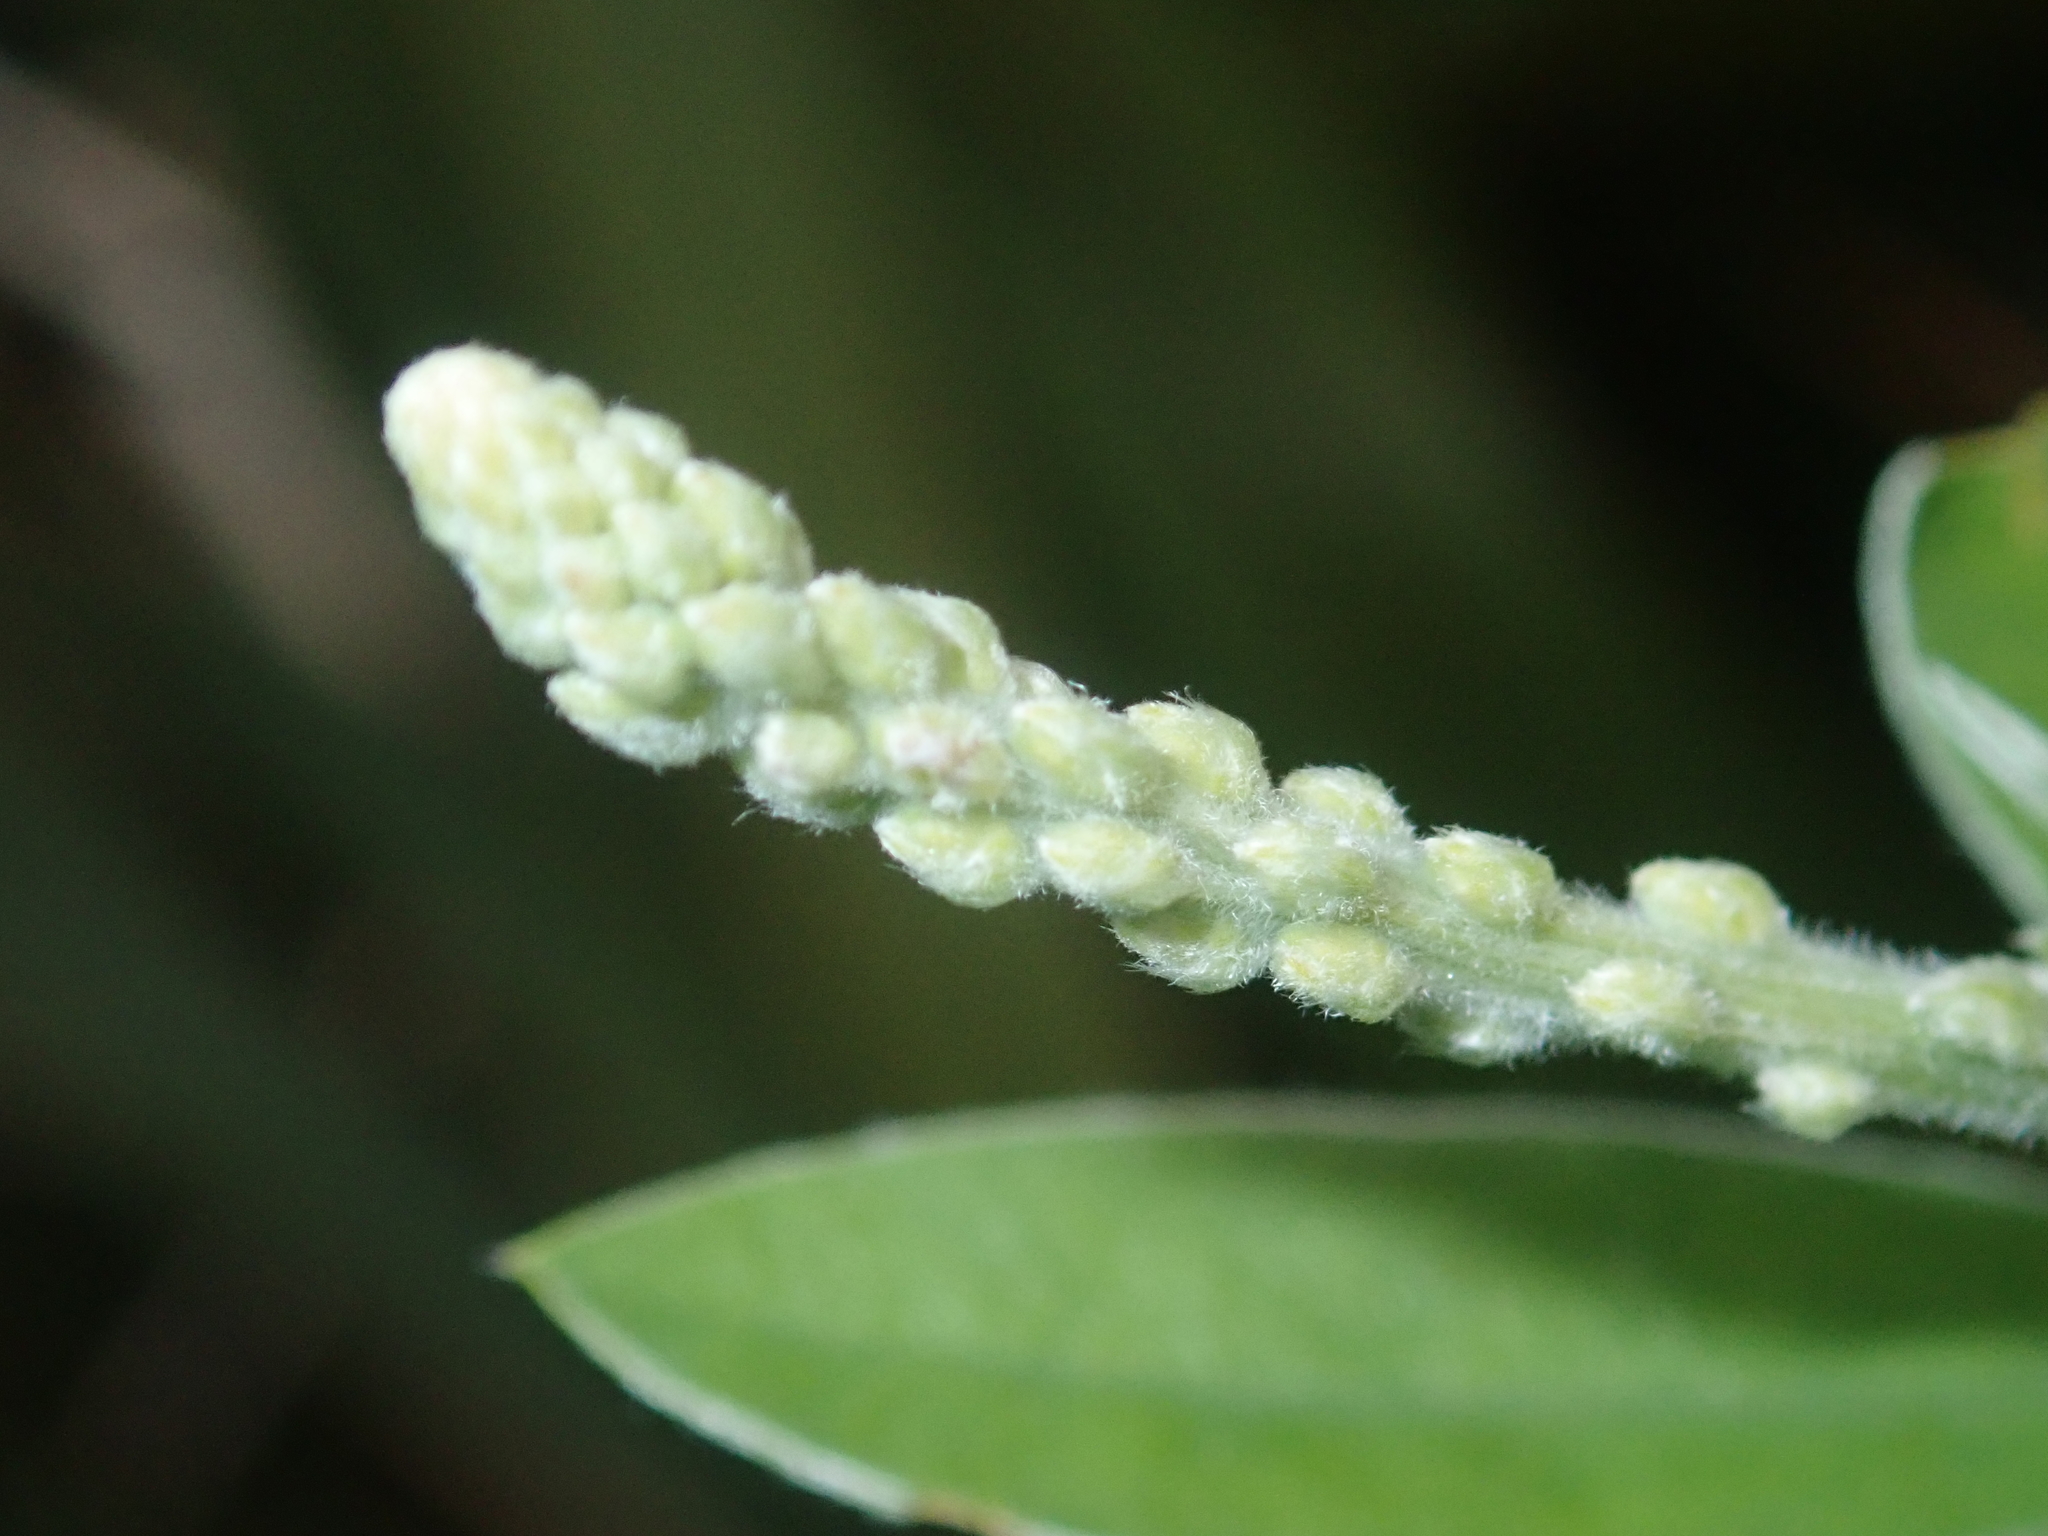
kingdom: Plantae
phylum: Tracheophyta
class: Magnoliopsida
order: Fabales
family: Fabaceae
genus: Genista
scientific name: Genista stenopetala
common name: Leafy broom
